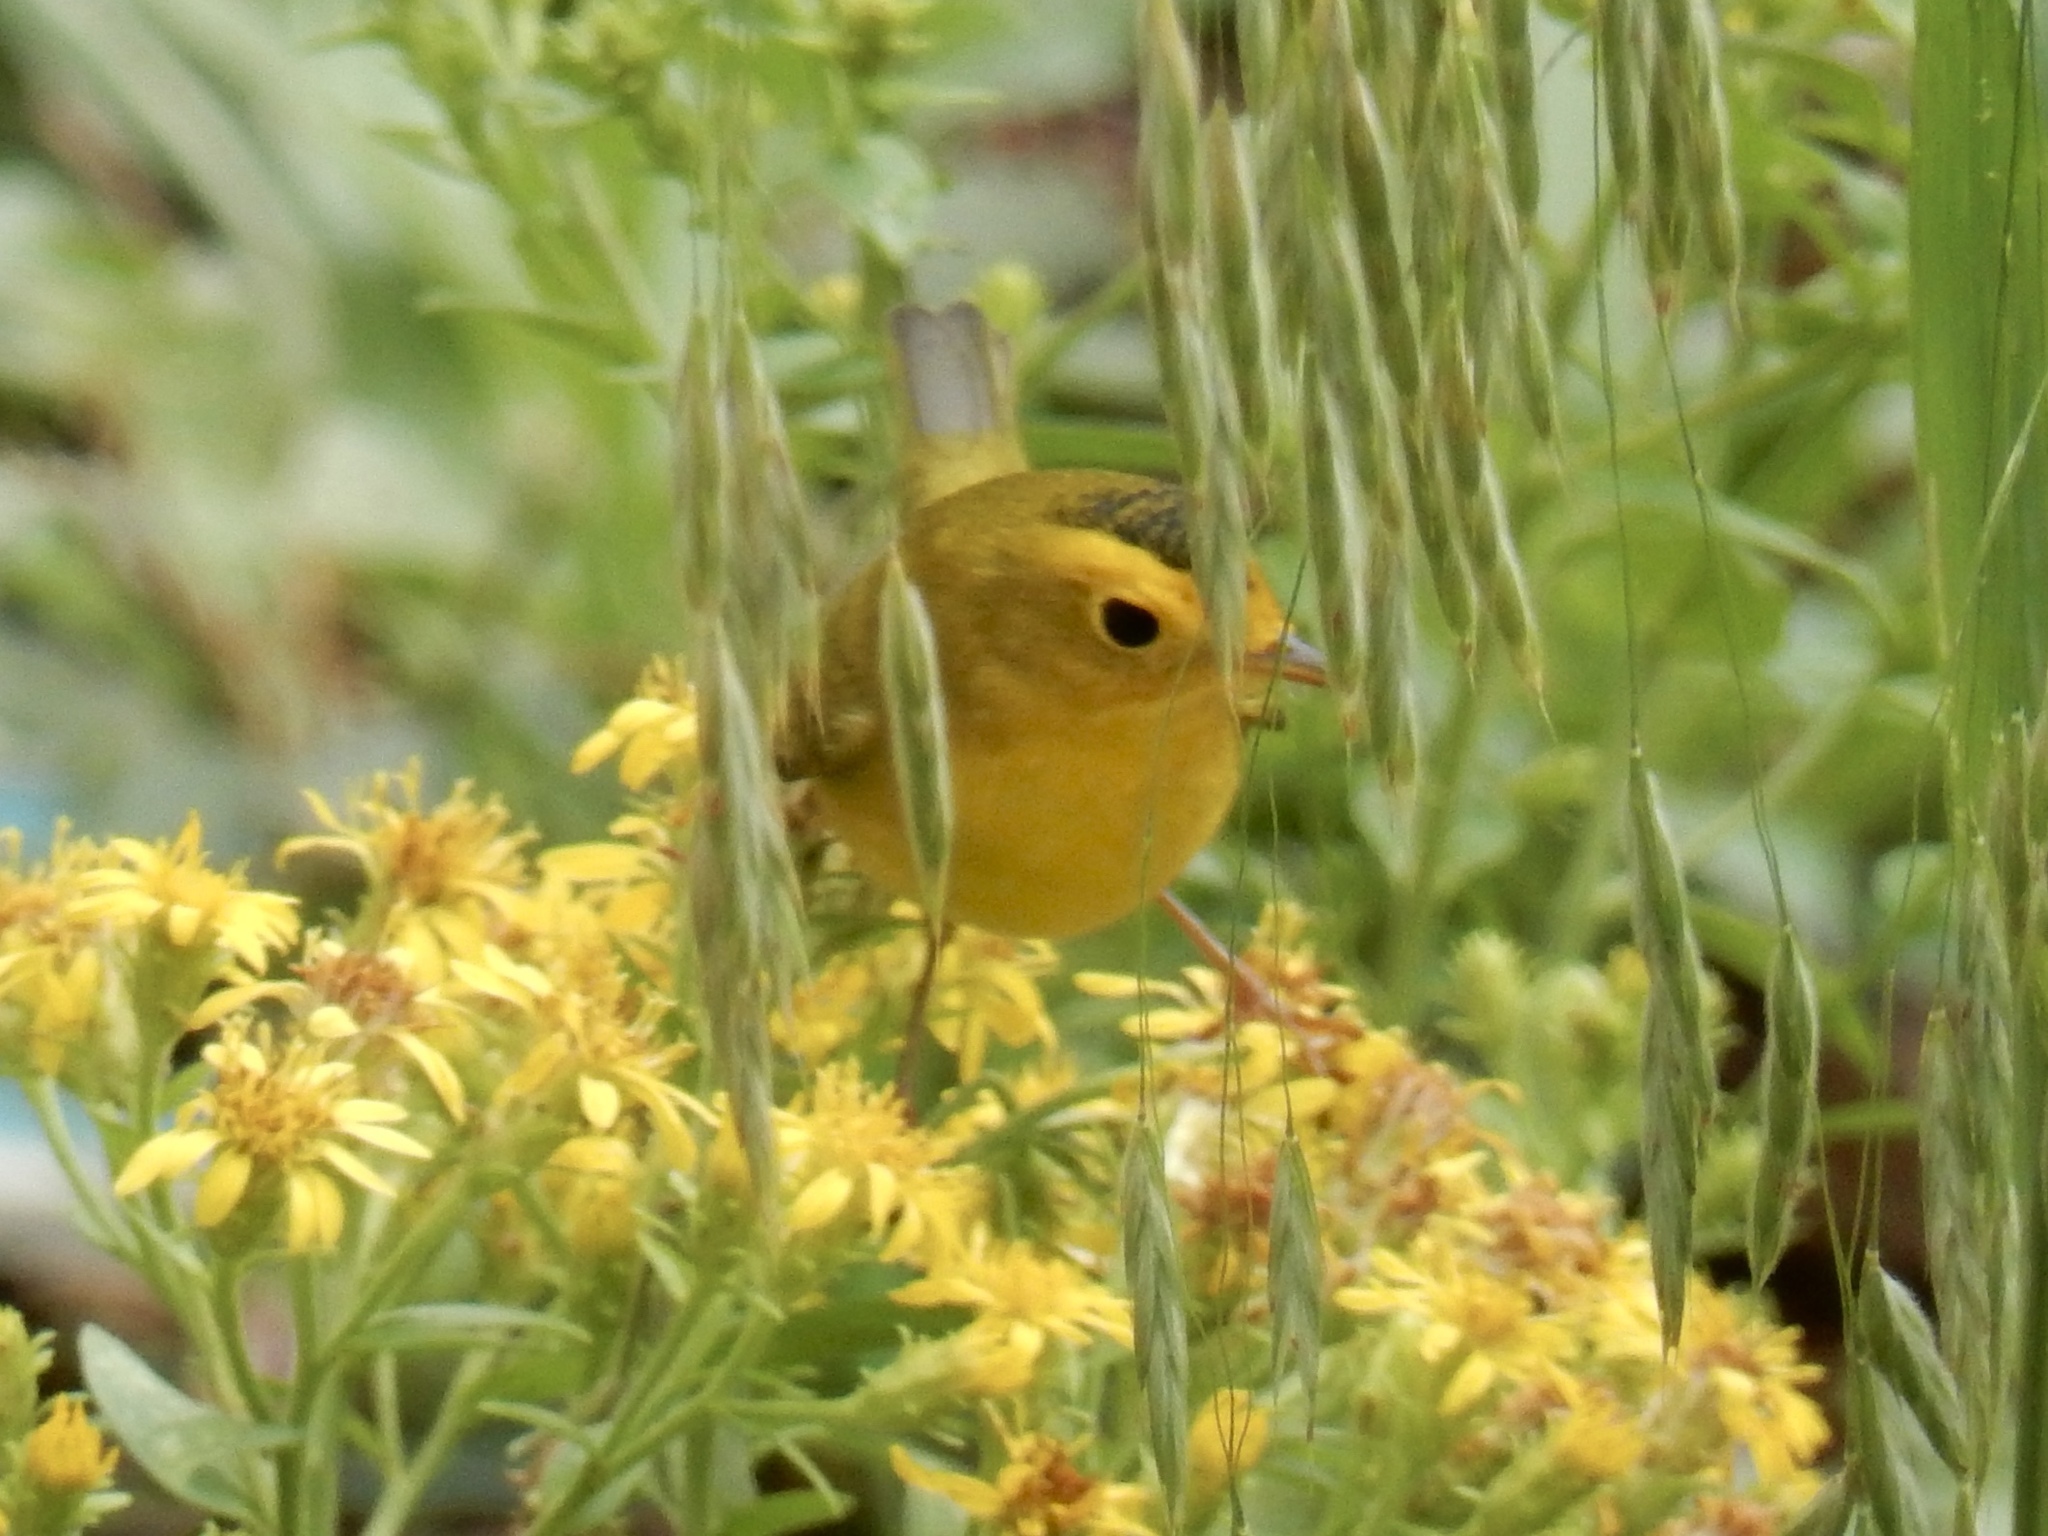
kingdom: Animalia
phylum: Chordata
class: Aves
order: Passeriformes
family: Parulidae
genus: Cardellina
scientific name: Cardellina pusilla
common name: Wilson's warbler
